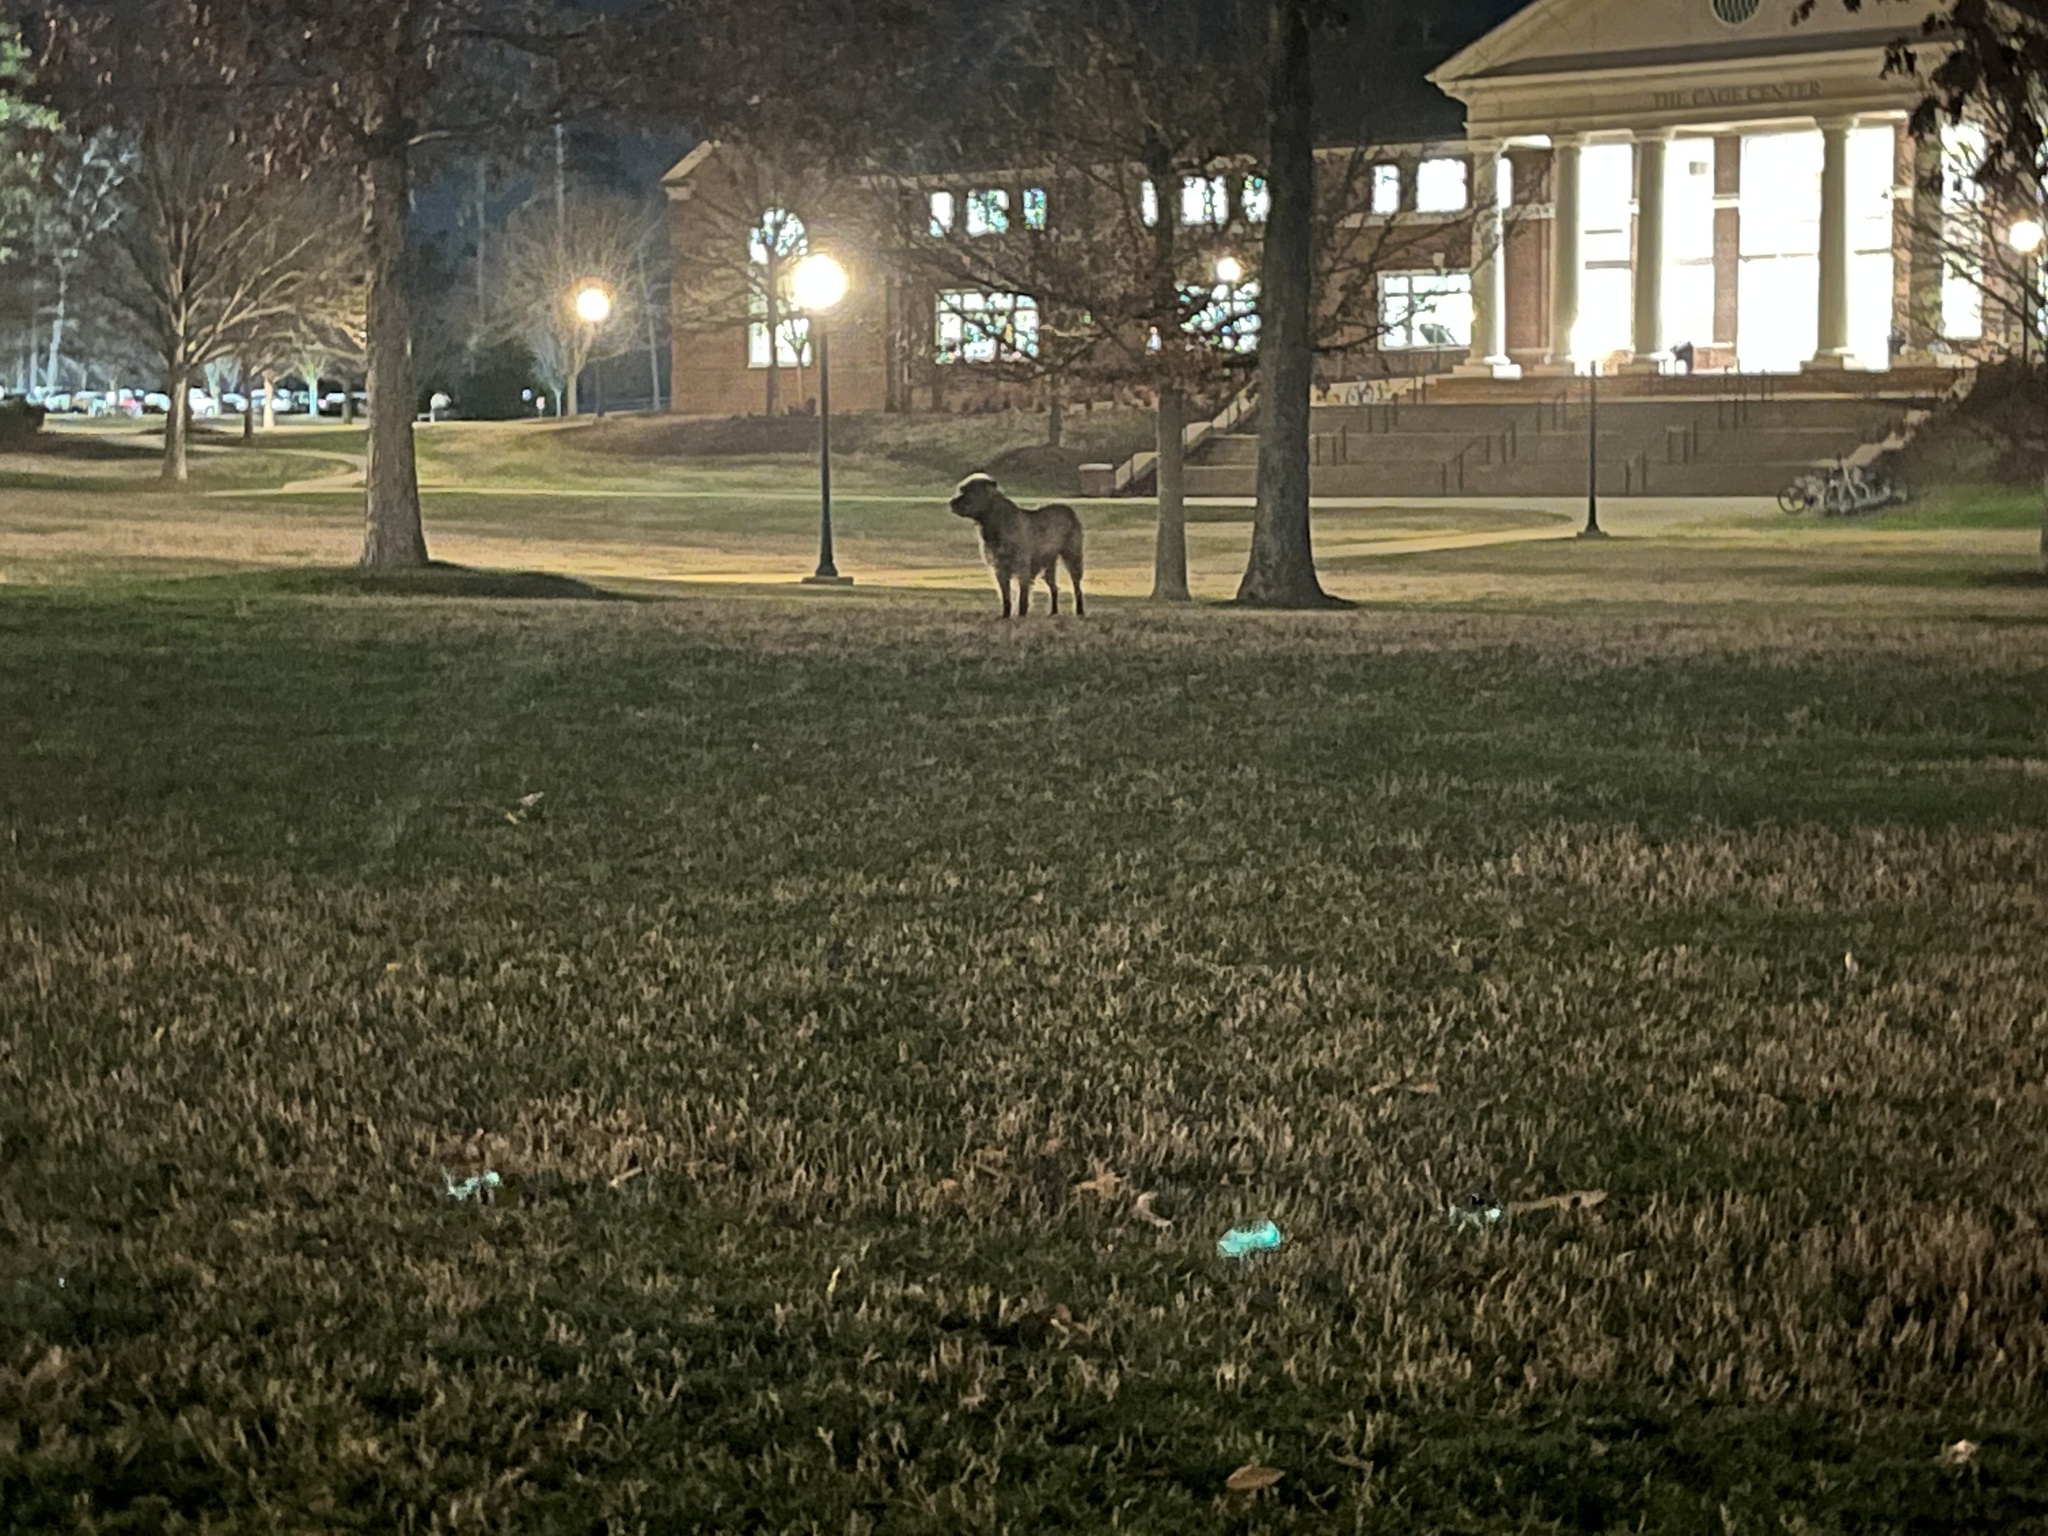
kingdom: Animalia
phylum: Chordata
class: Mammalia
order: Carnivora
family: Canidae
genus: Canis
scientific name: Canis lupus
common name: Gray wolf
